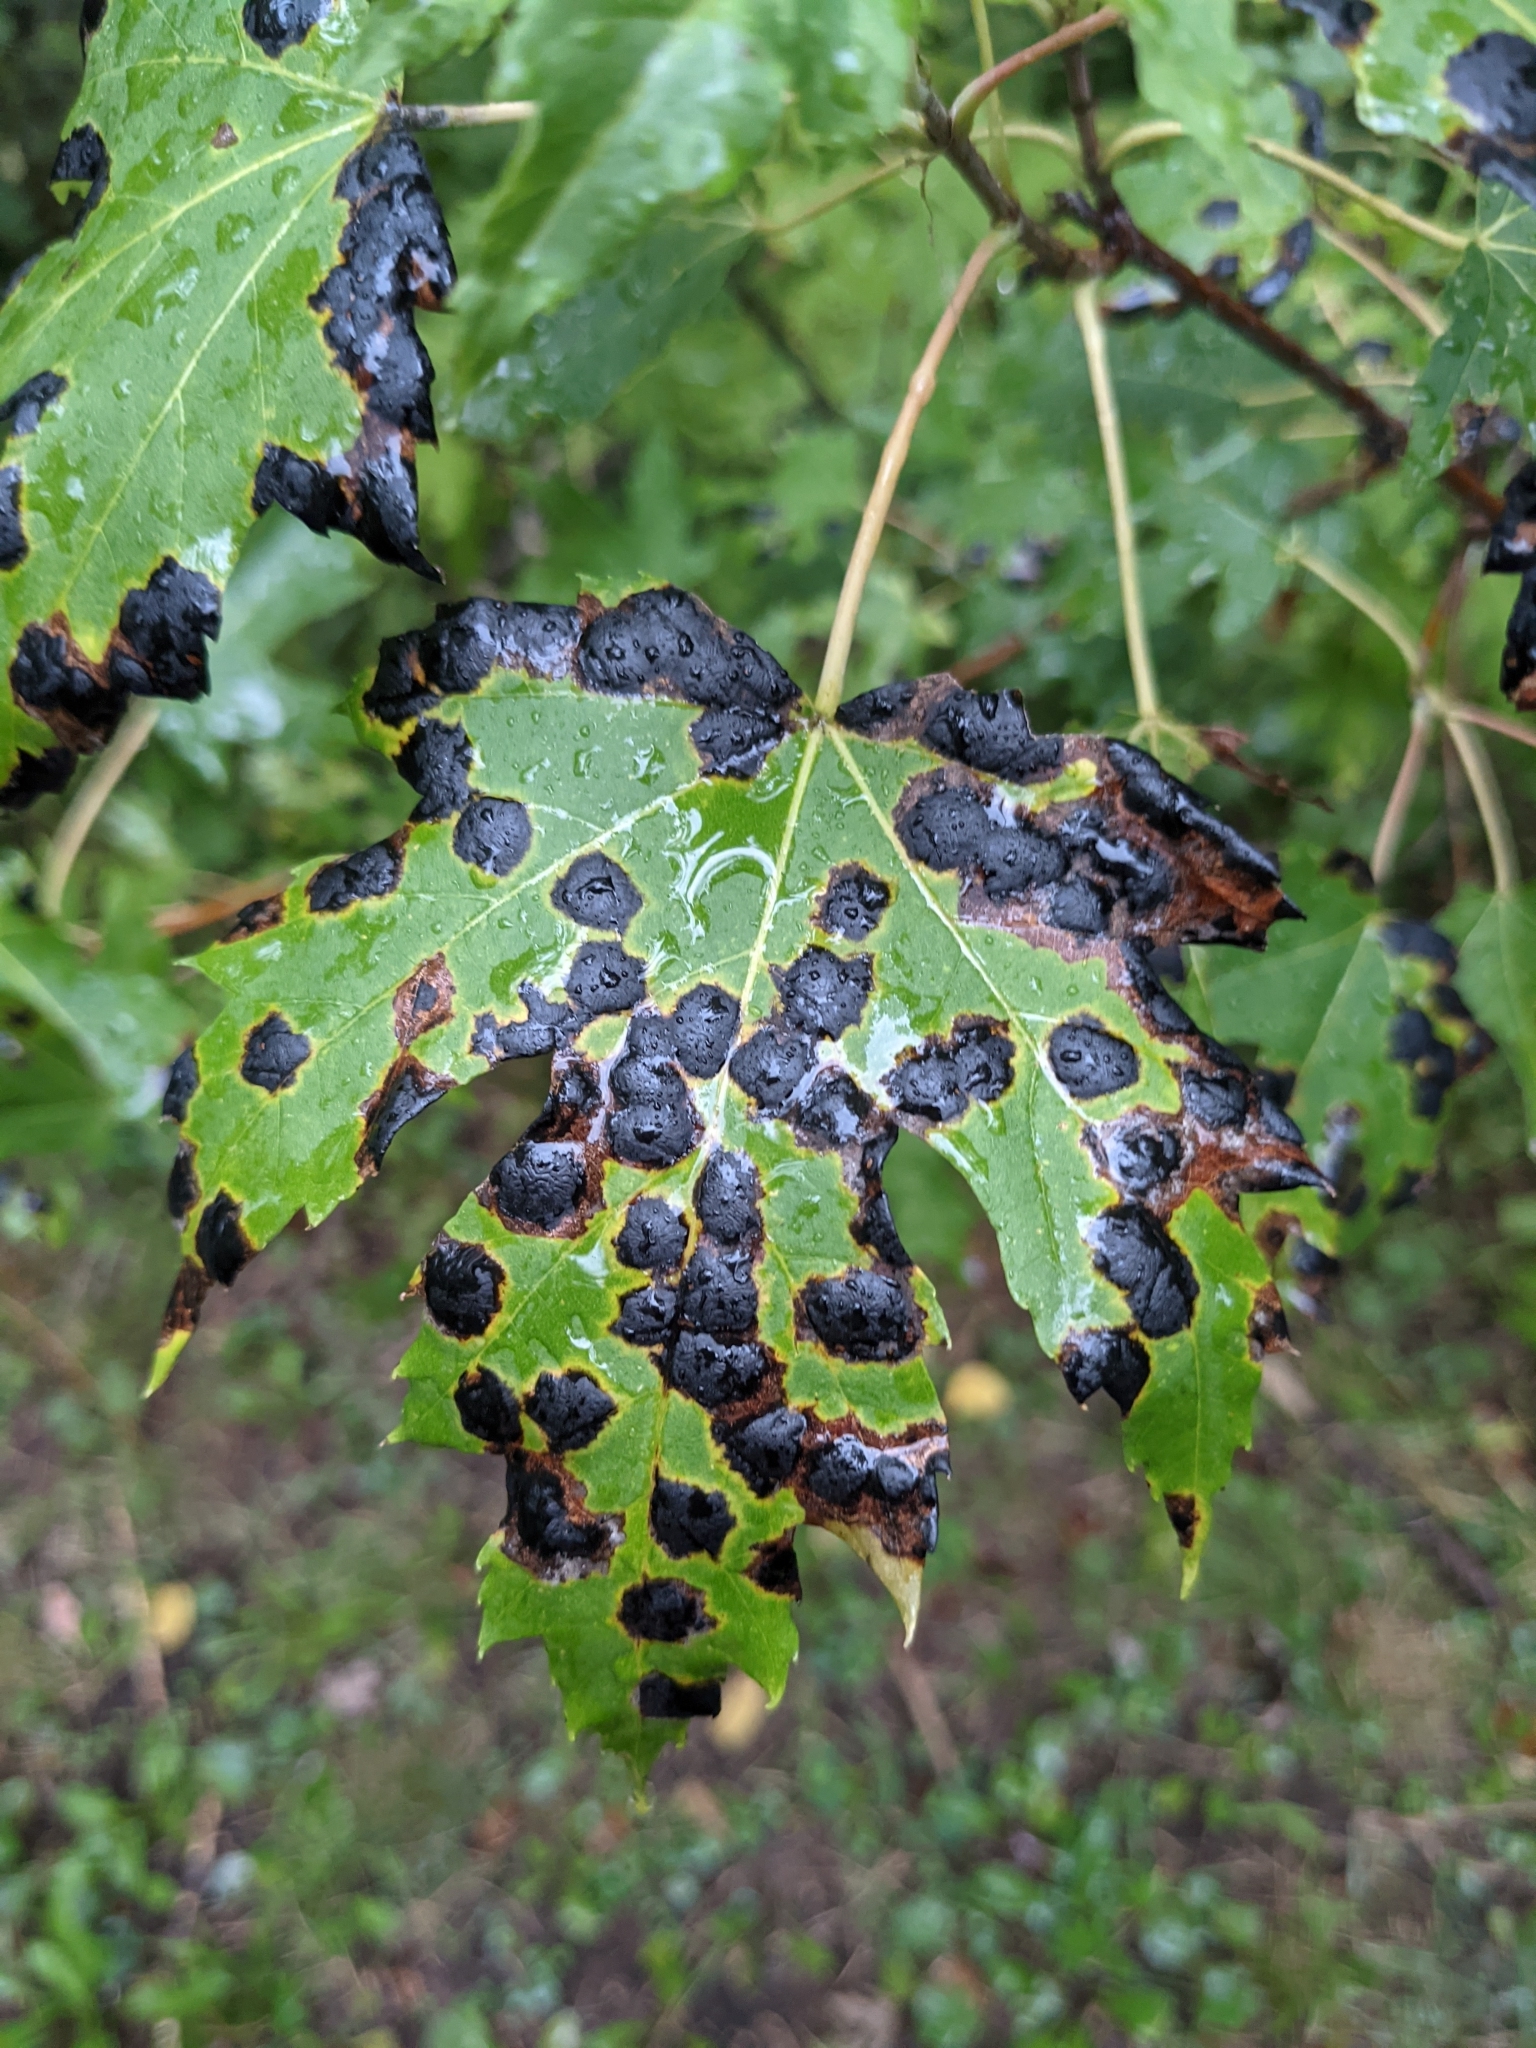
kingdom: Fungi
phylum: Ascomycota
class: Leotiomycetes
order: Rhytismatales
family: Rhytismataceae
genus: Rhytisma
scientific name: Rhytisma americanum
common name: American tar spot
